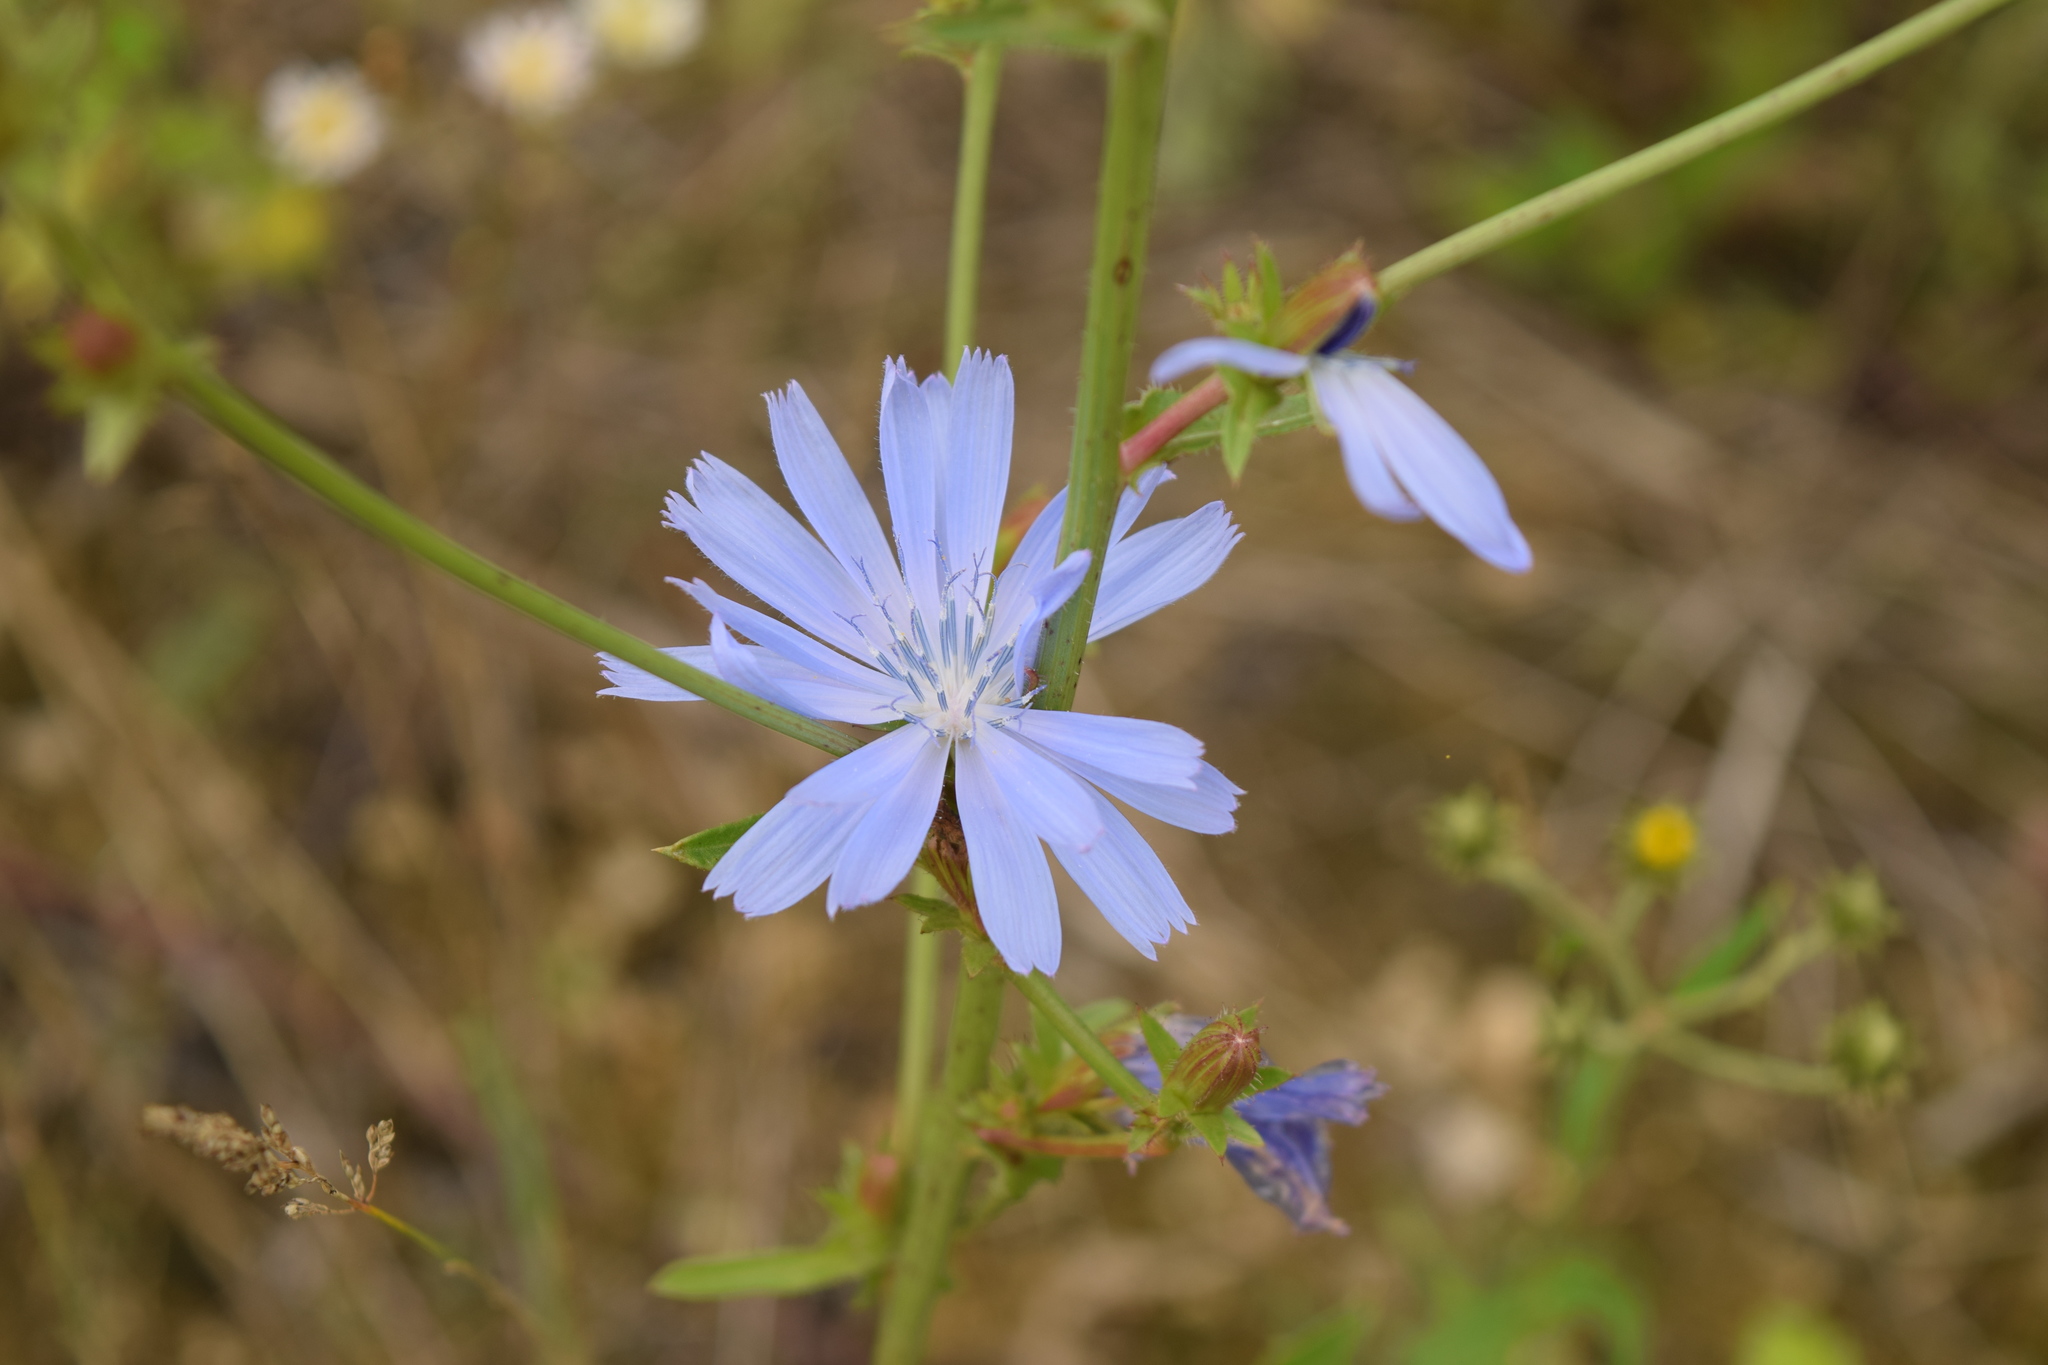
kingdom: Plantae
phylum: Tracheophyta
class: Magnoliopsida
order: Asterales
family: Asteraceae
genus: Cichorium
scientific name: Cichorium intybus
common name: Chicory
